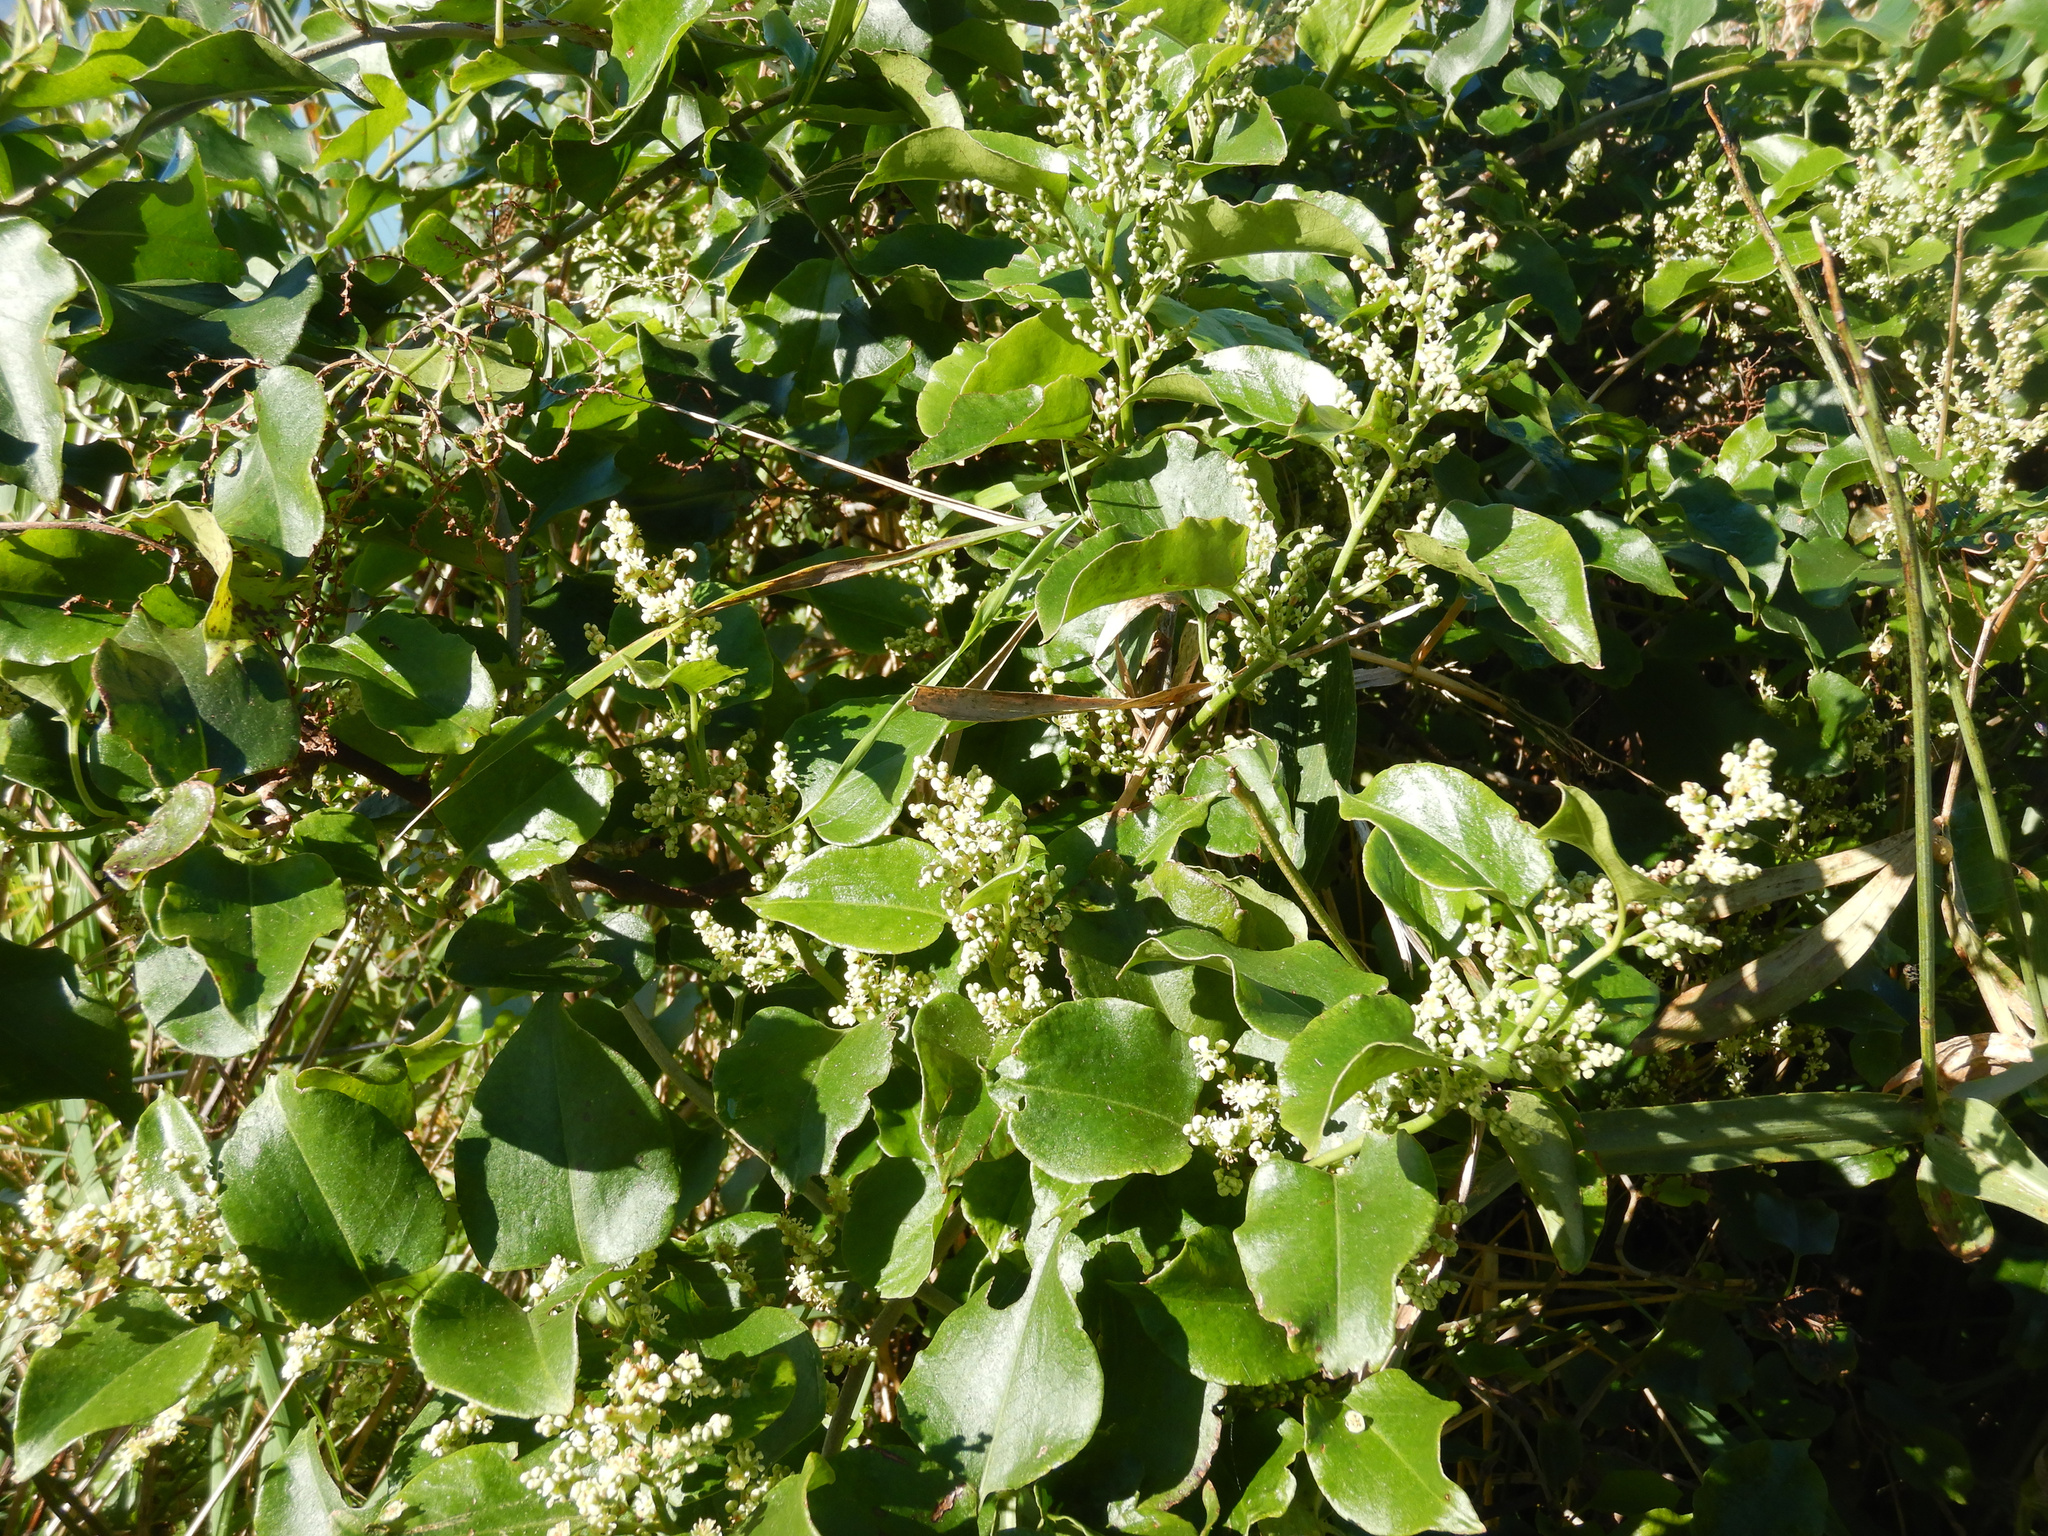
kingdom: Plantae
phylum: Tracheophyta
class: Magnoliopsida
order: Caryophyllales
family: Polygonaceae
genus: Muehlenbeckia
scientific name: Muehlenbeckia australis
